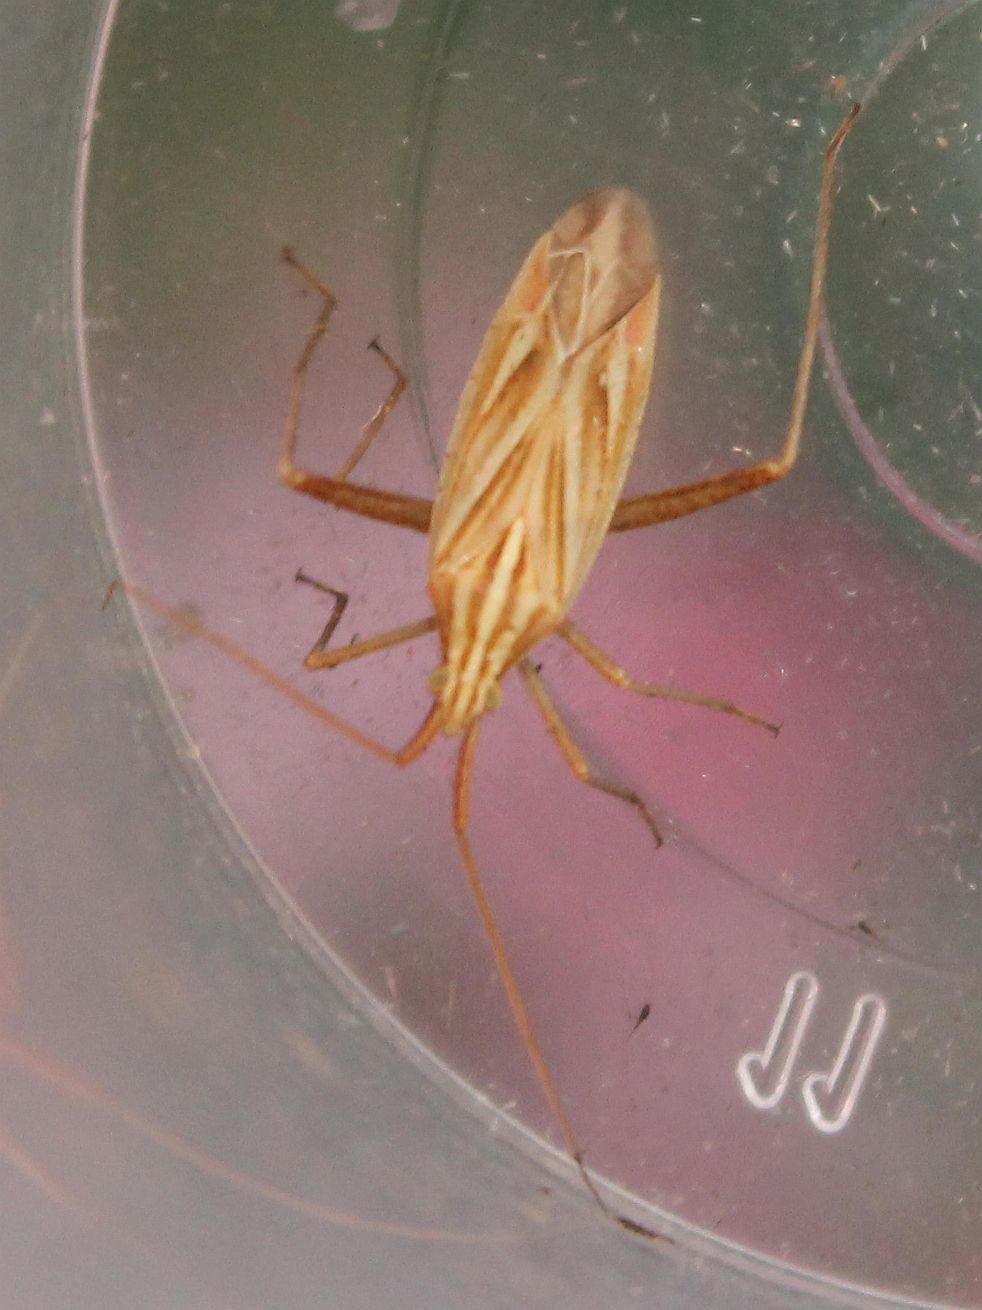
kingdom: Animalia
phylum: Arthropoda
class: Insecta
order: Hemiptera
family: Miridae
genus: Miridius
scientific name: Miridius quadrivirgatus
